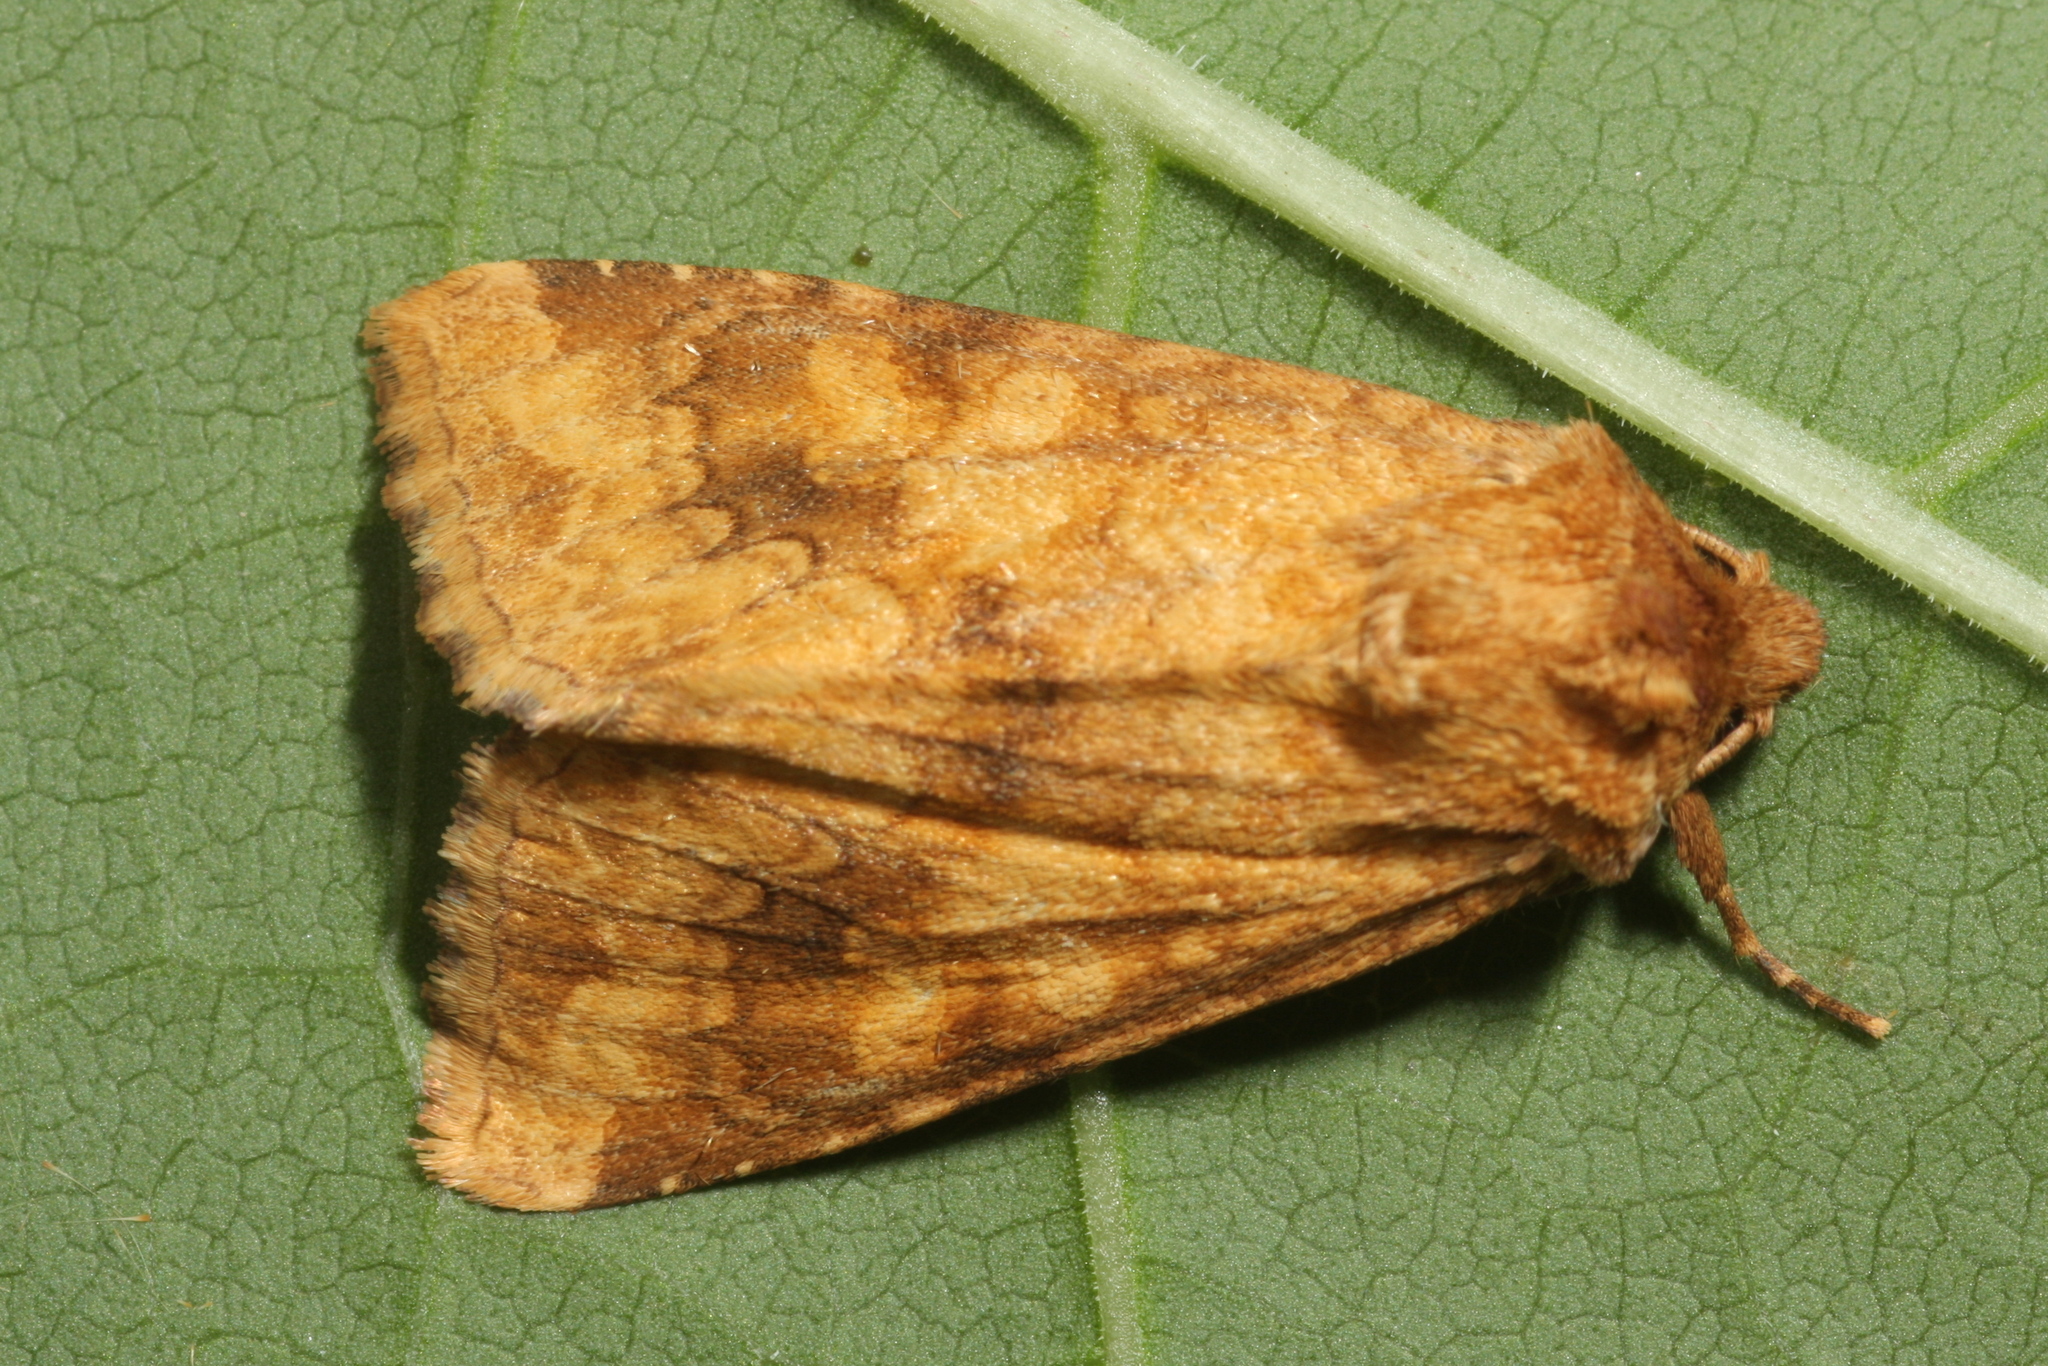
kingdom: Animalia
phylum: Arthropoda
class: Insecta
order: Lepidoptera
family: Noctuidae
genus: Conisania
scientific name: Conisania luteago
